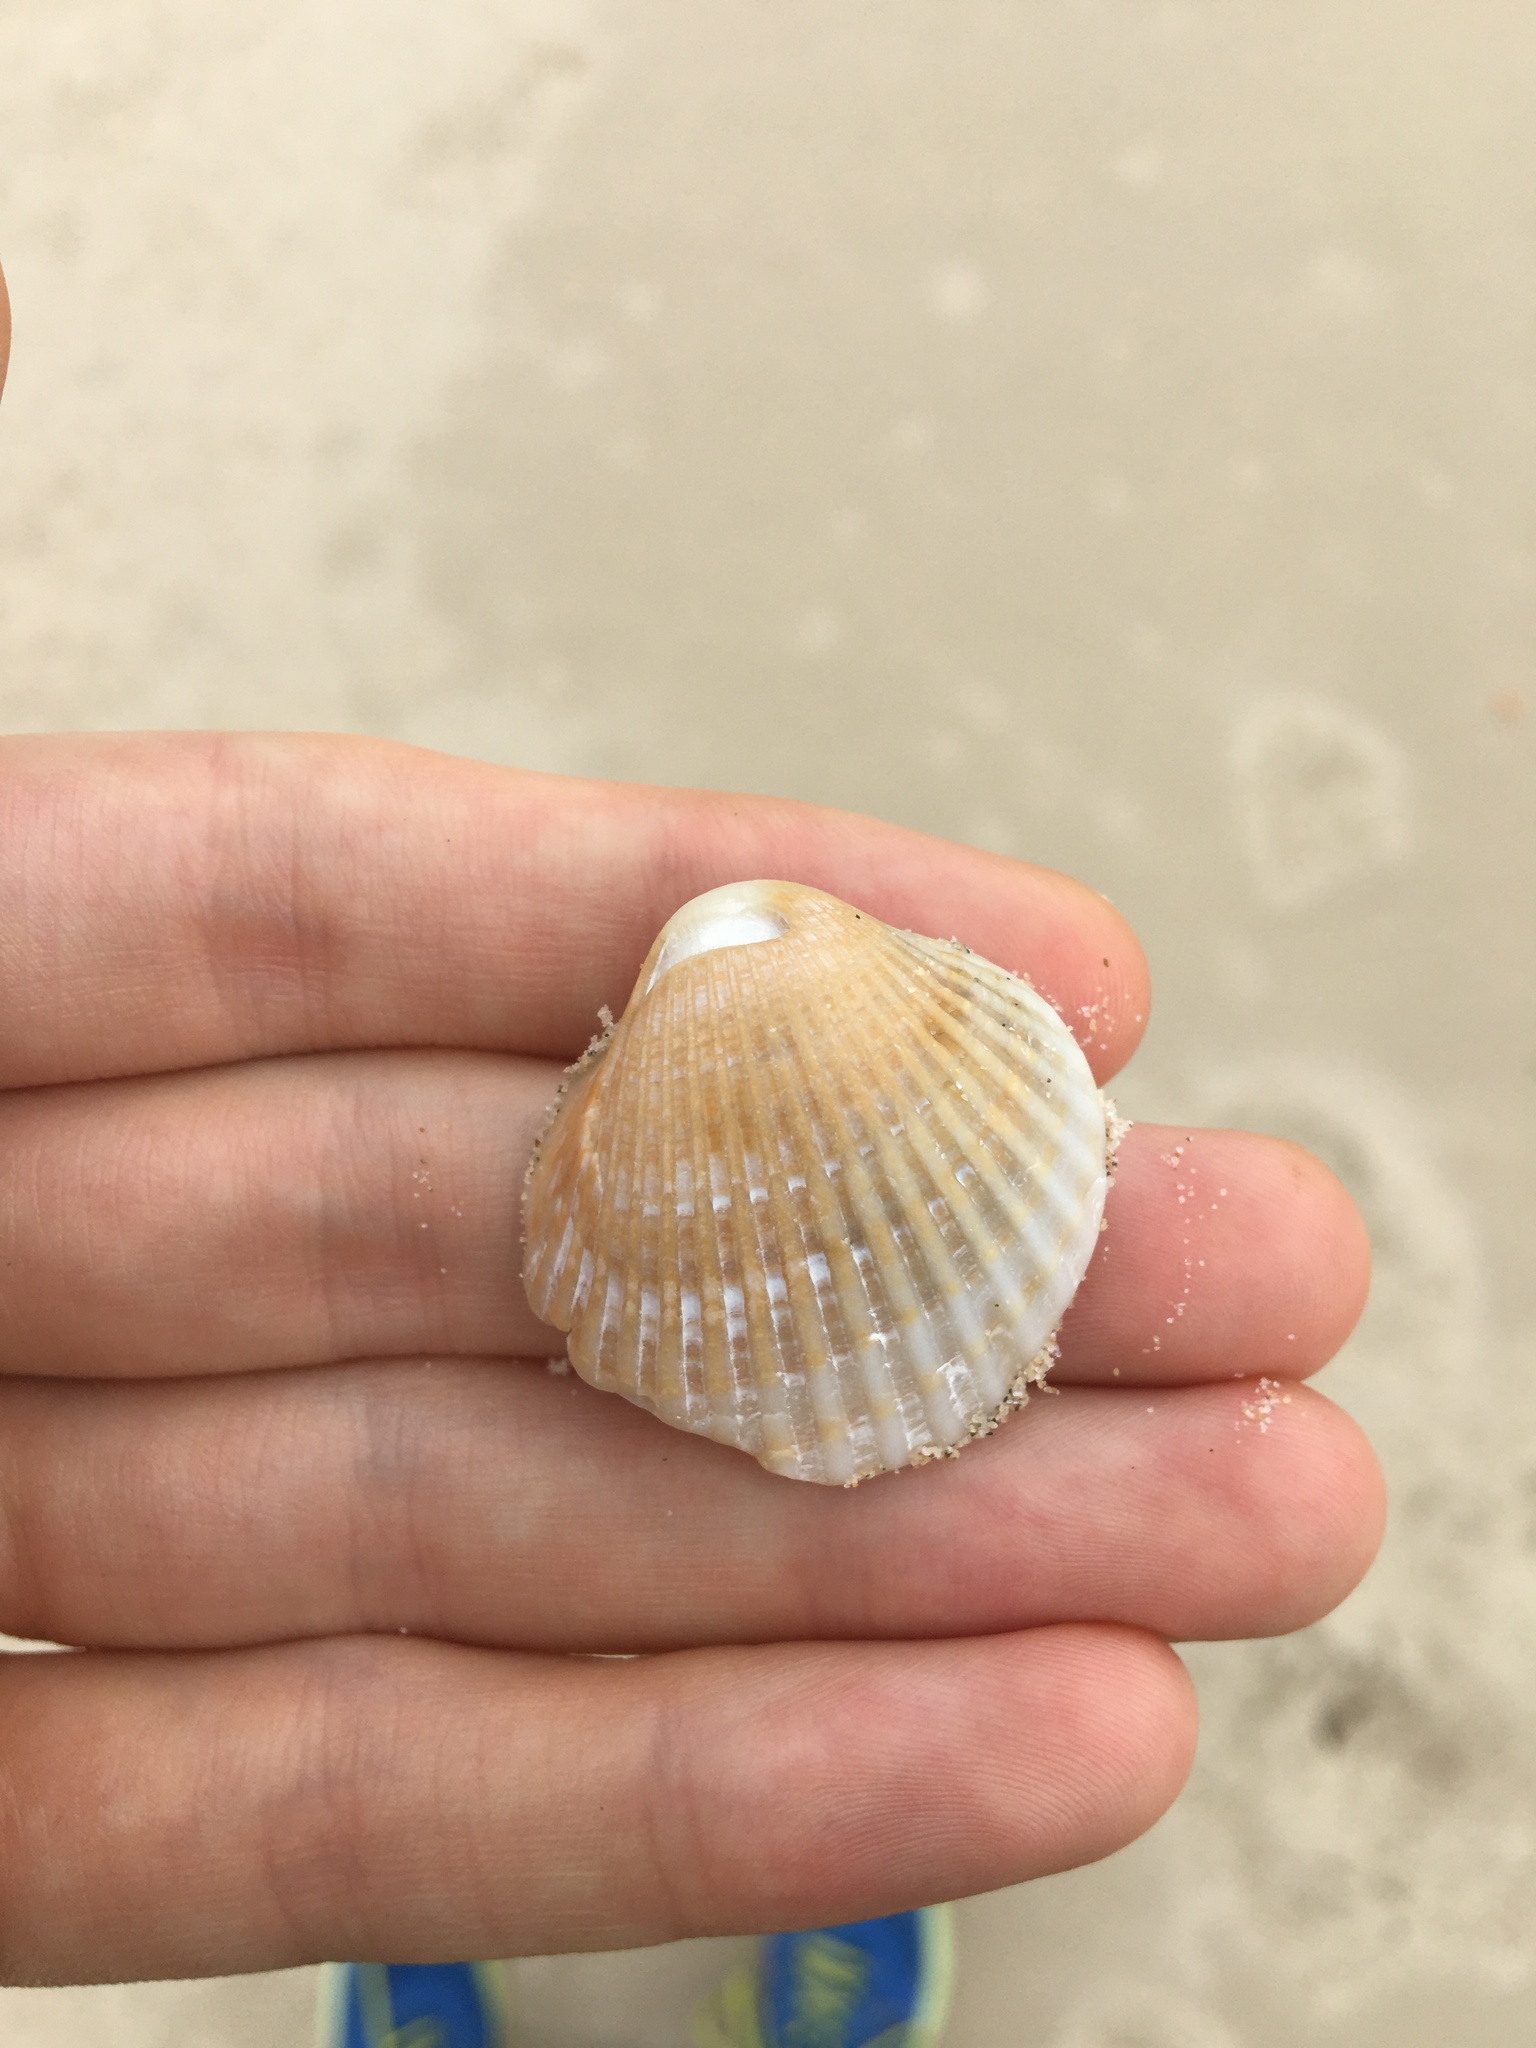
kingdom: Animalia
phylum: Mollusca
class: Bivalvia
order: Arcida
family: Arcidae
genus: Anadara
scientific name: Anadara trapezia
